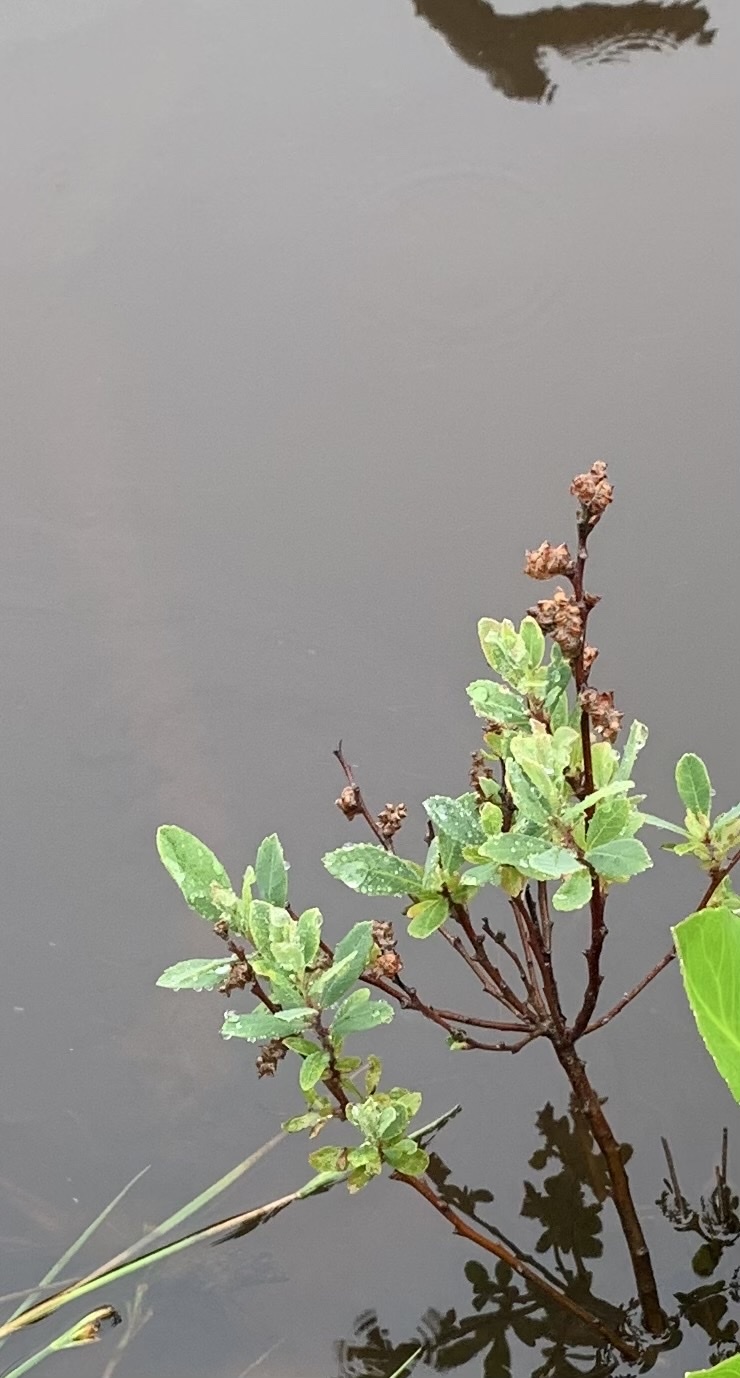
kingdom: Plantae
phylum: Tracheophyta
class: Magnoliopsida
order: Fagales
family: Myricaceae
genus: Myrica
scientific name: Myrica gale
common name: Sweet gale
